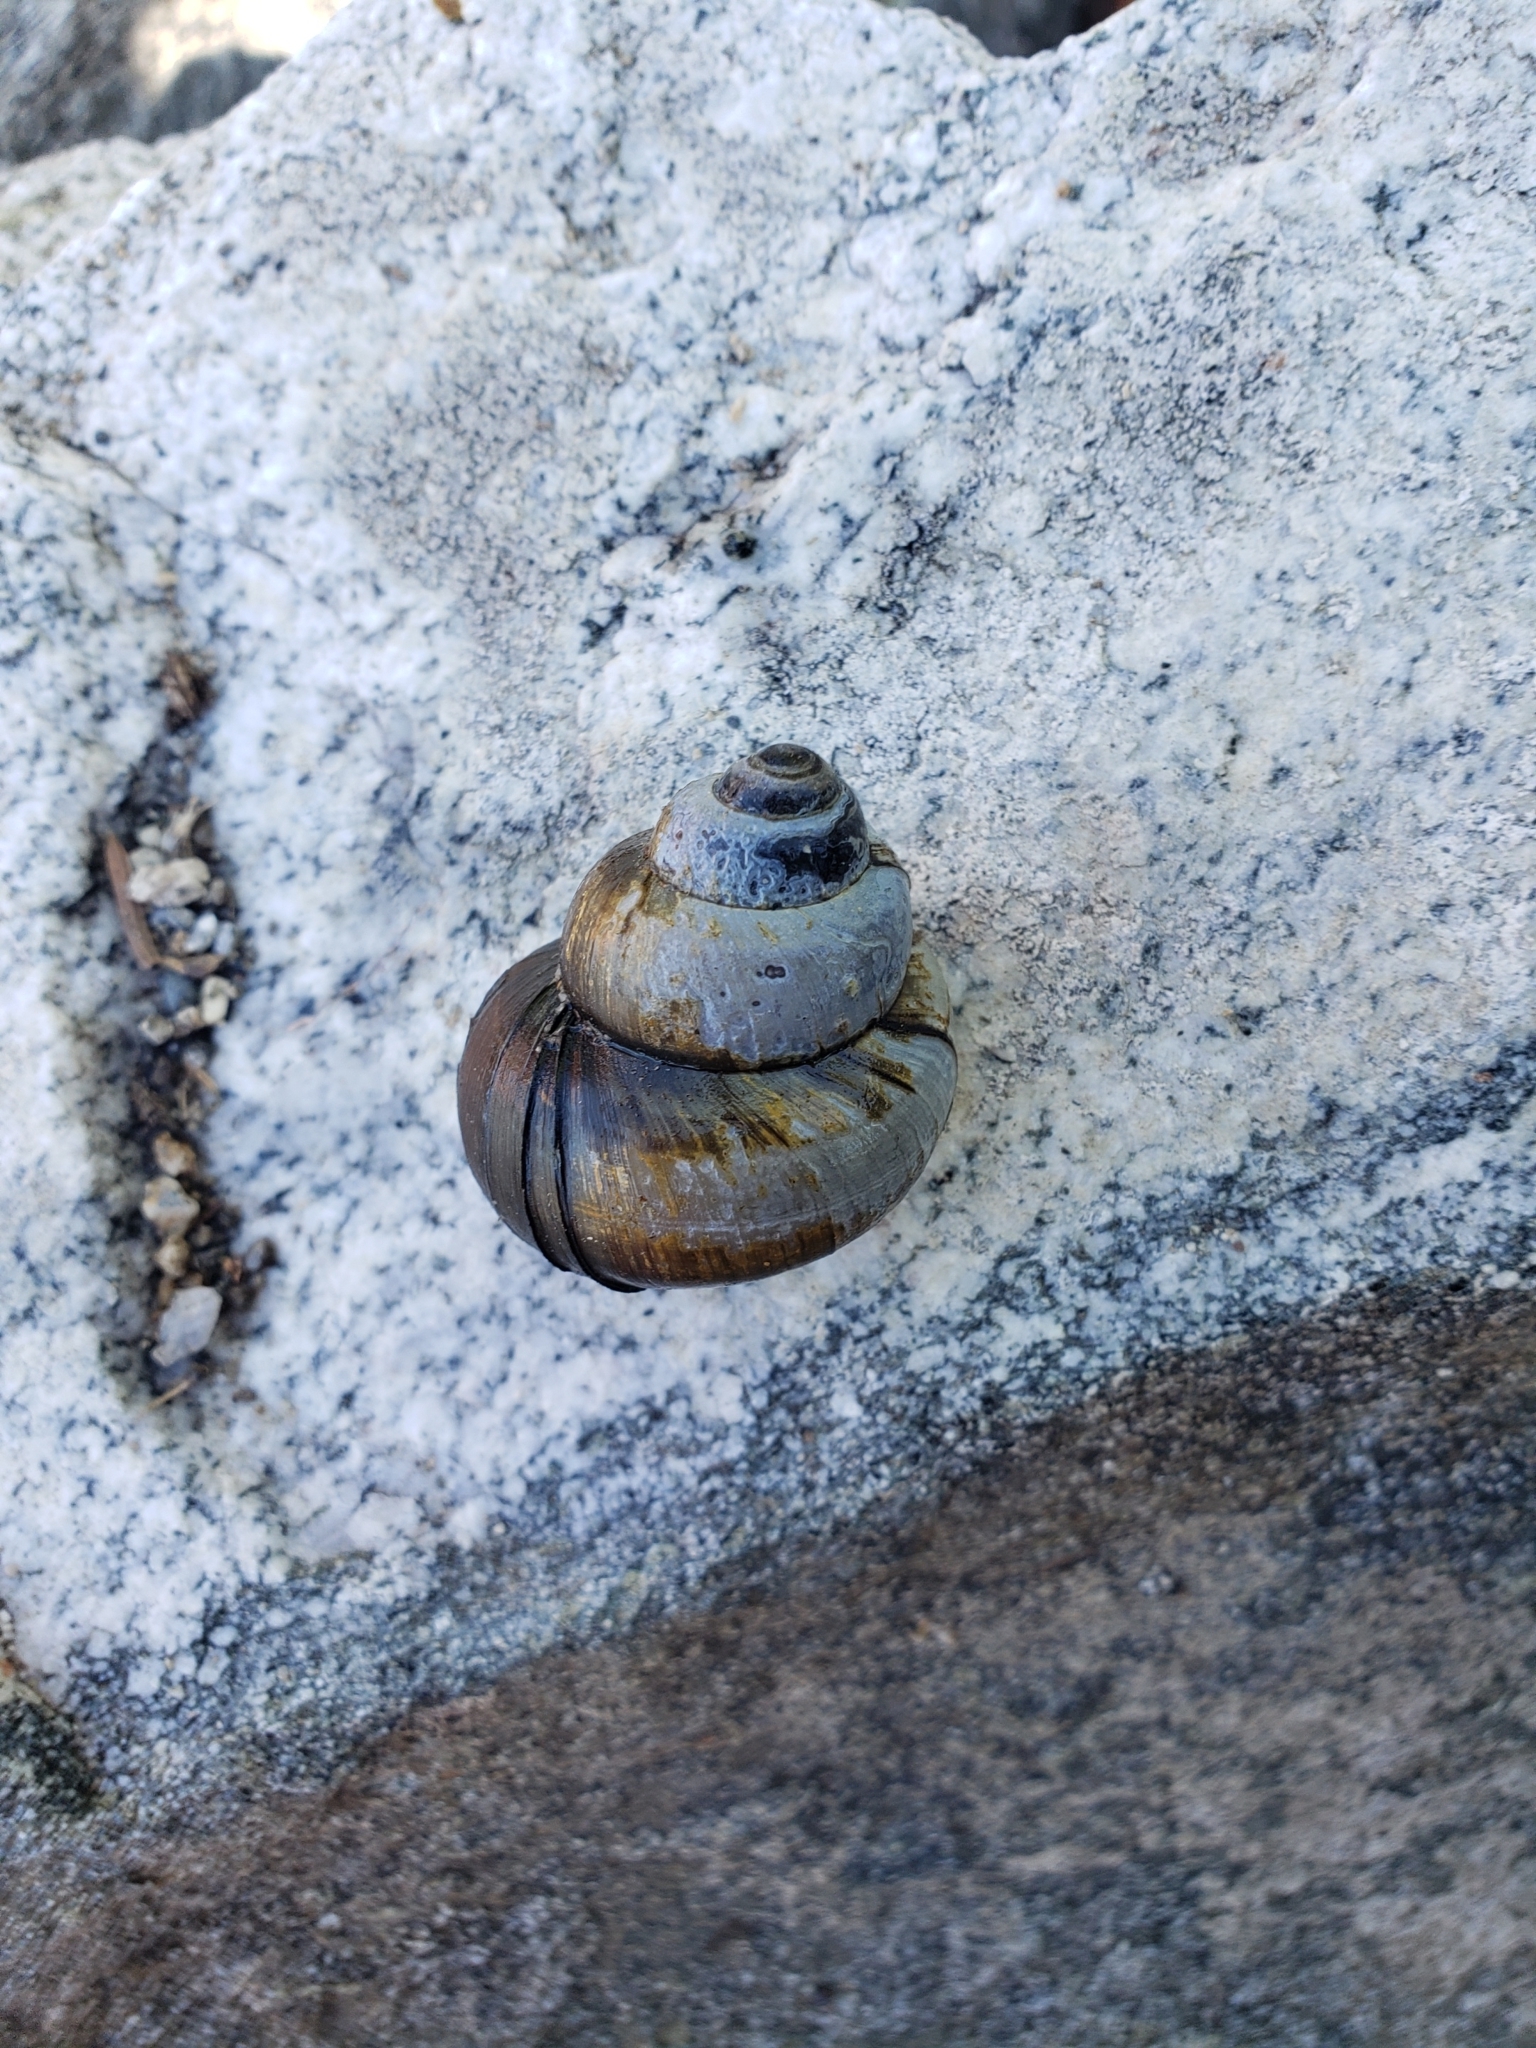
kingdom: Animalia
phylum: Mollusca
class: Gastropoda
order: Architaenioglossa
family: Viviparidae
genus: Cipangopaludina
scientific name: Cipangopaludina chinensis
